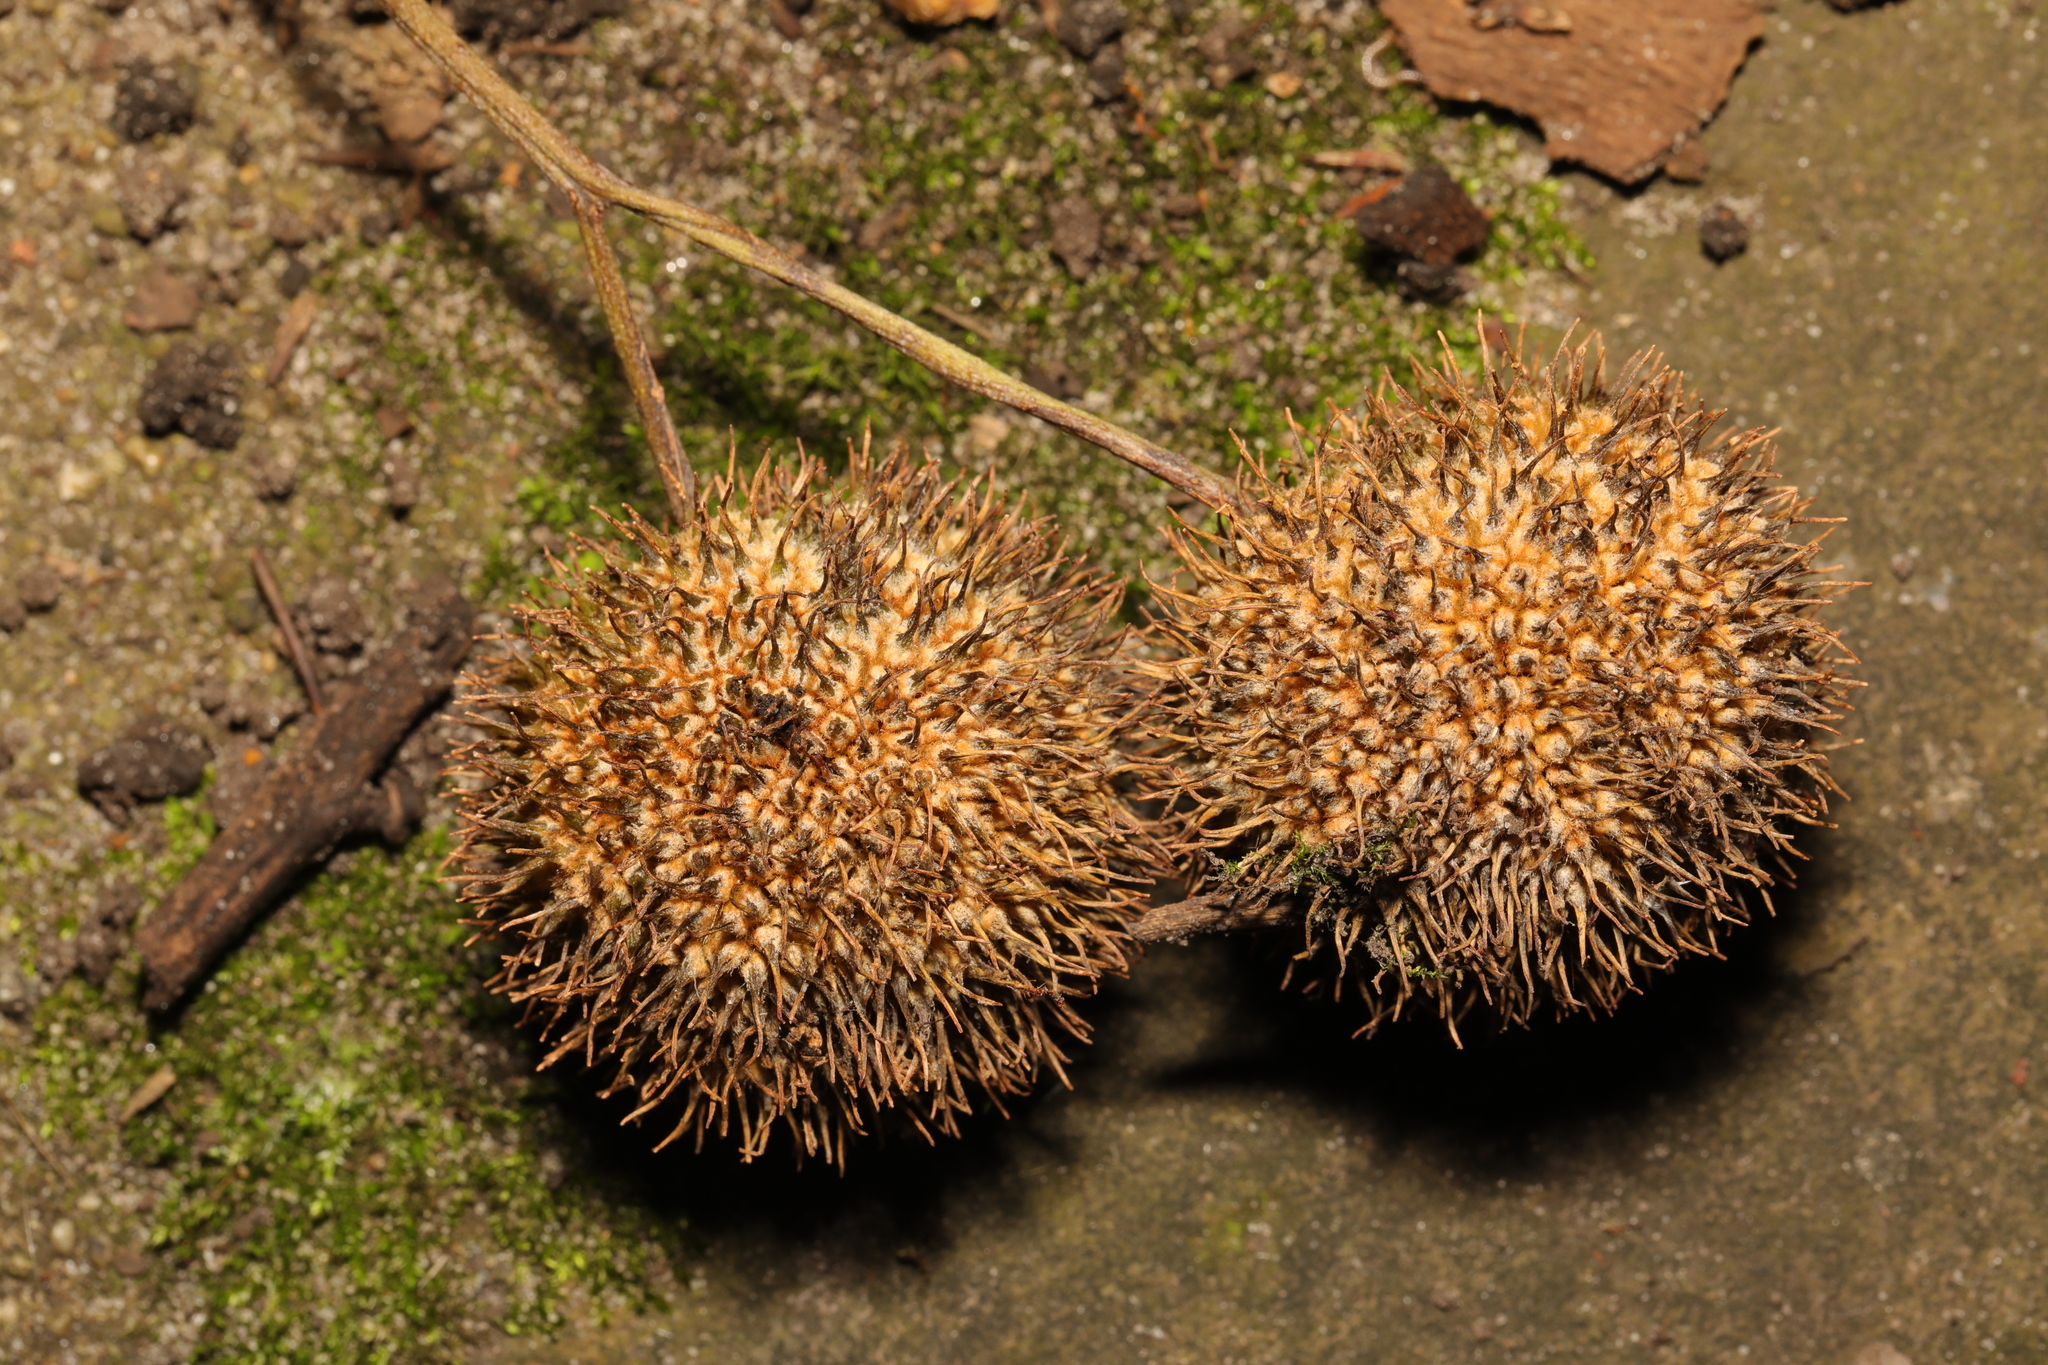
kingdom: Plantae
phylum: Tracheophyta
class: Magnoliopsida
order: Proteales
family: Platanaceae
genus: Platanus
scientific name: Platanus hispanica
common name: London plane
